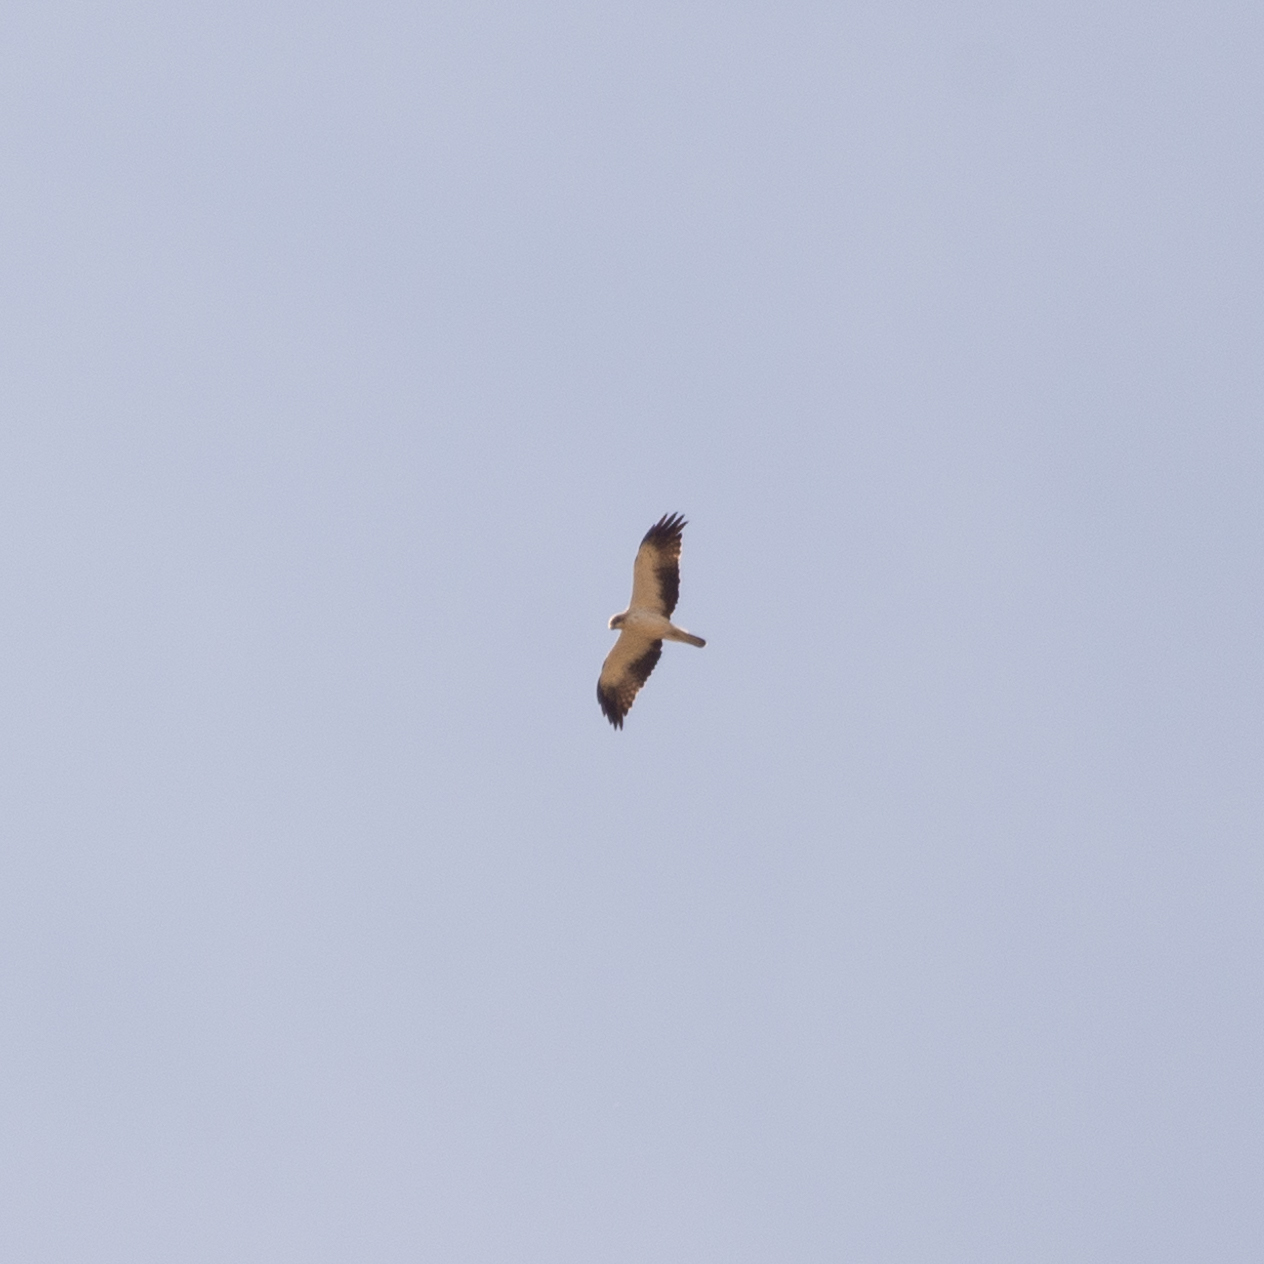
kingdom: Animalia
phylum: Chordata
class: Aves
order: Accipitriformes
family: Accipitridae
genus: Hieraaetus
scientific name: Hieraaetus pennatus
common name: Booted eagle
